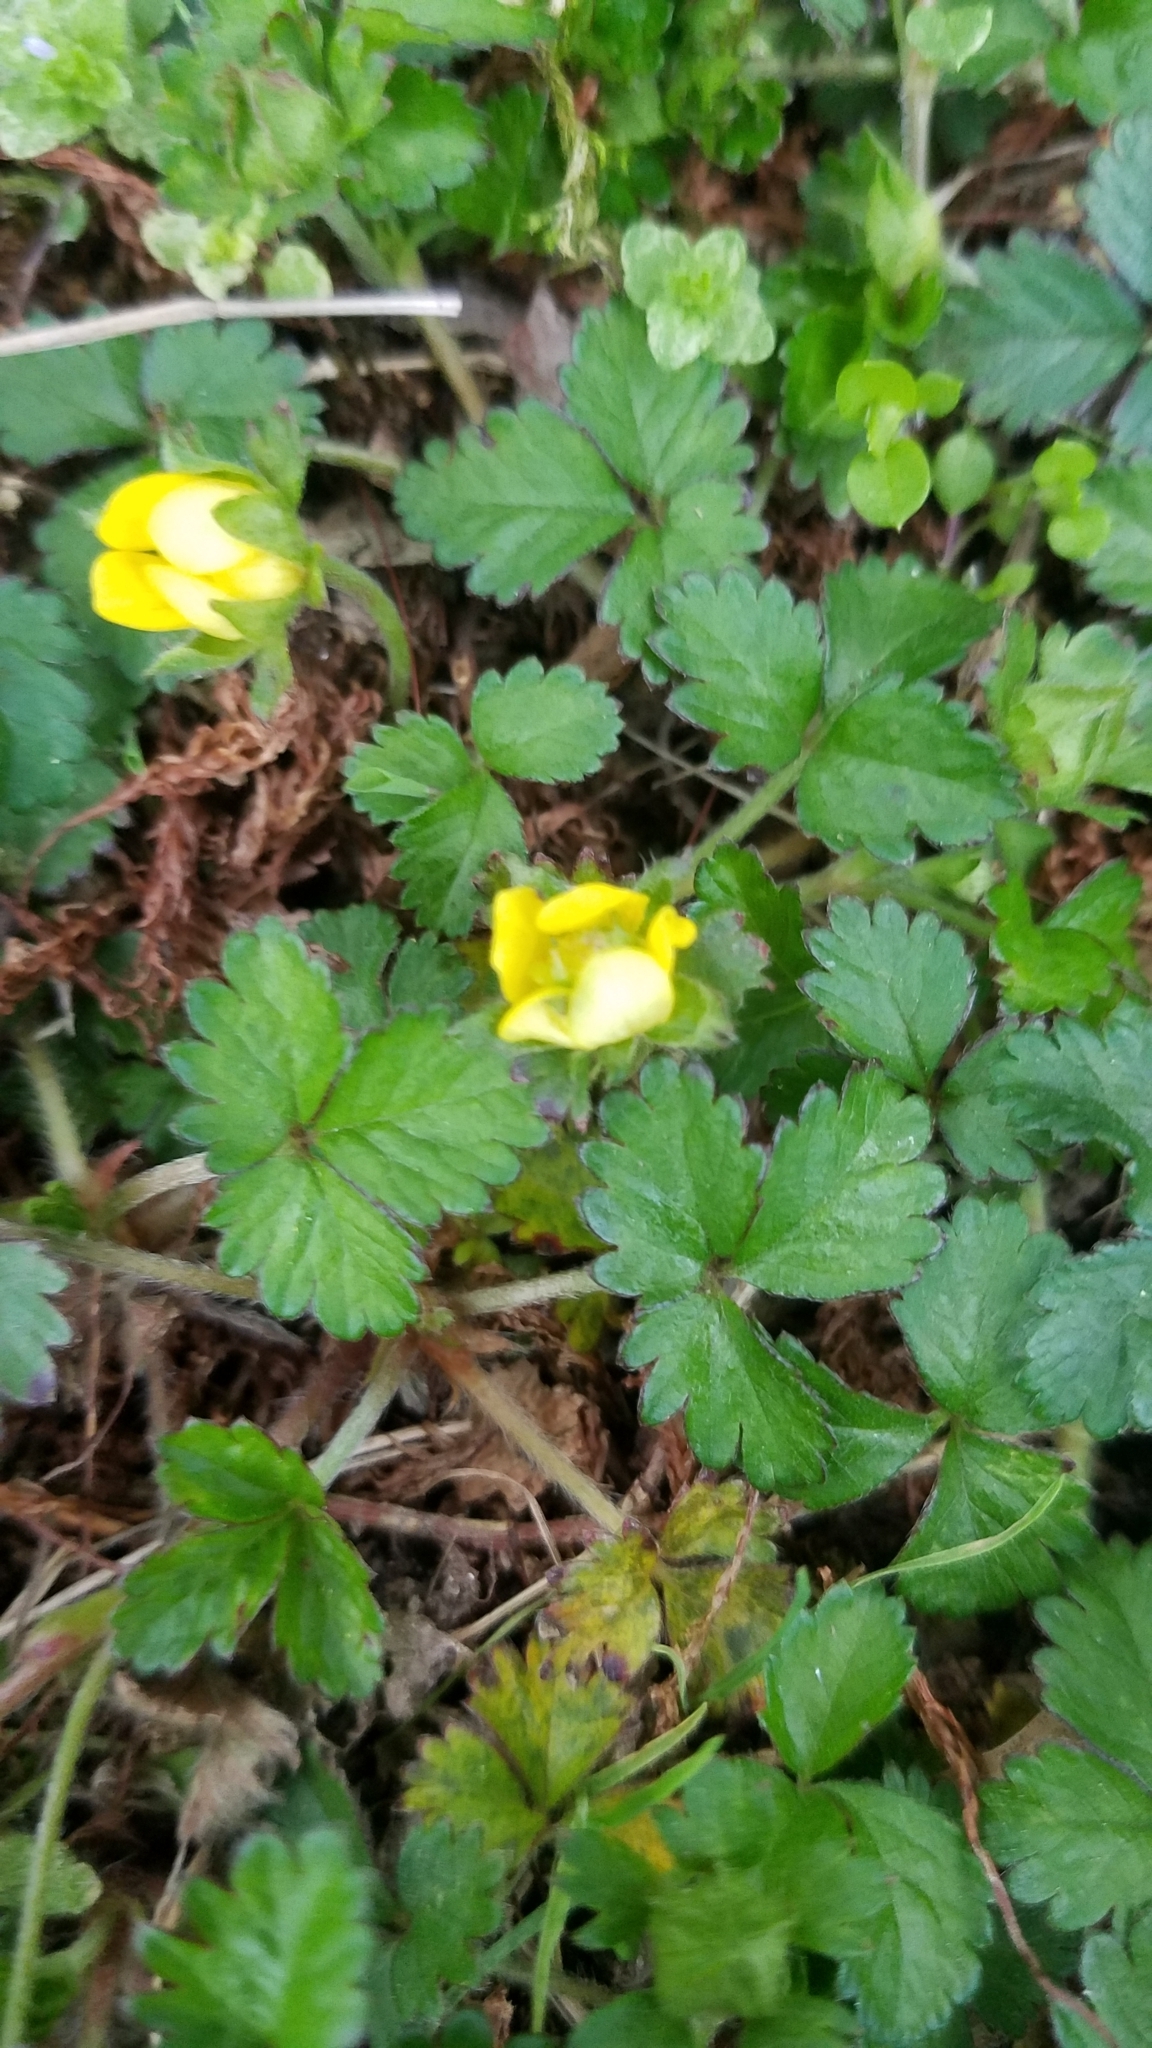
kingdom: Plantae
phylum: Tracheophyta
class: Magnoliopsida
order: Rosales
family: Rosaceae
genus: Potentilla
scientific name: Potentilla indica
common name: Yellow-flowered strawberry
